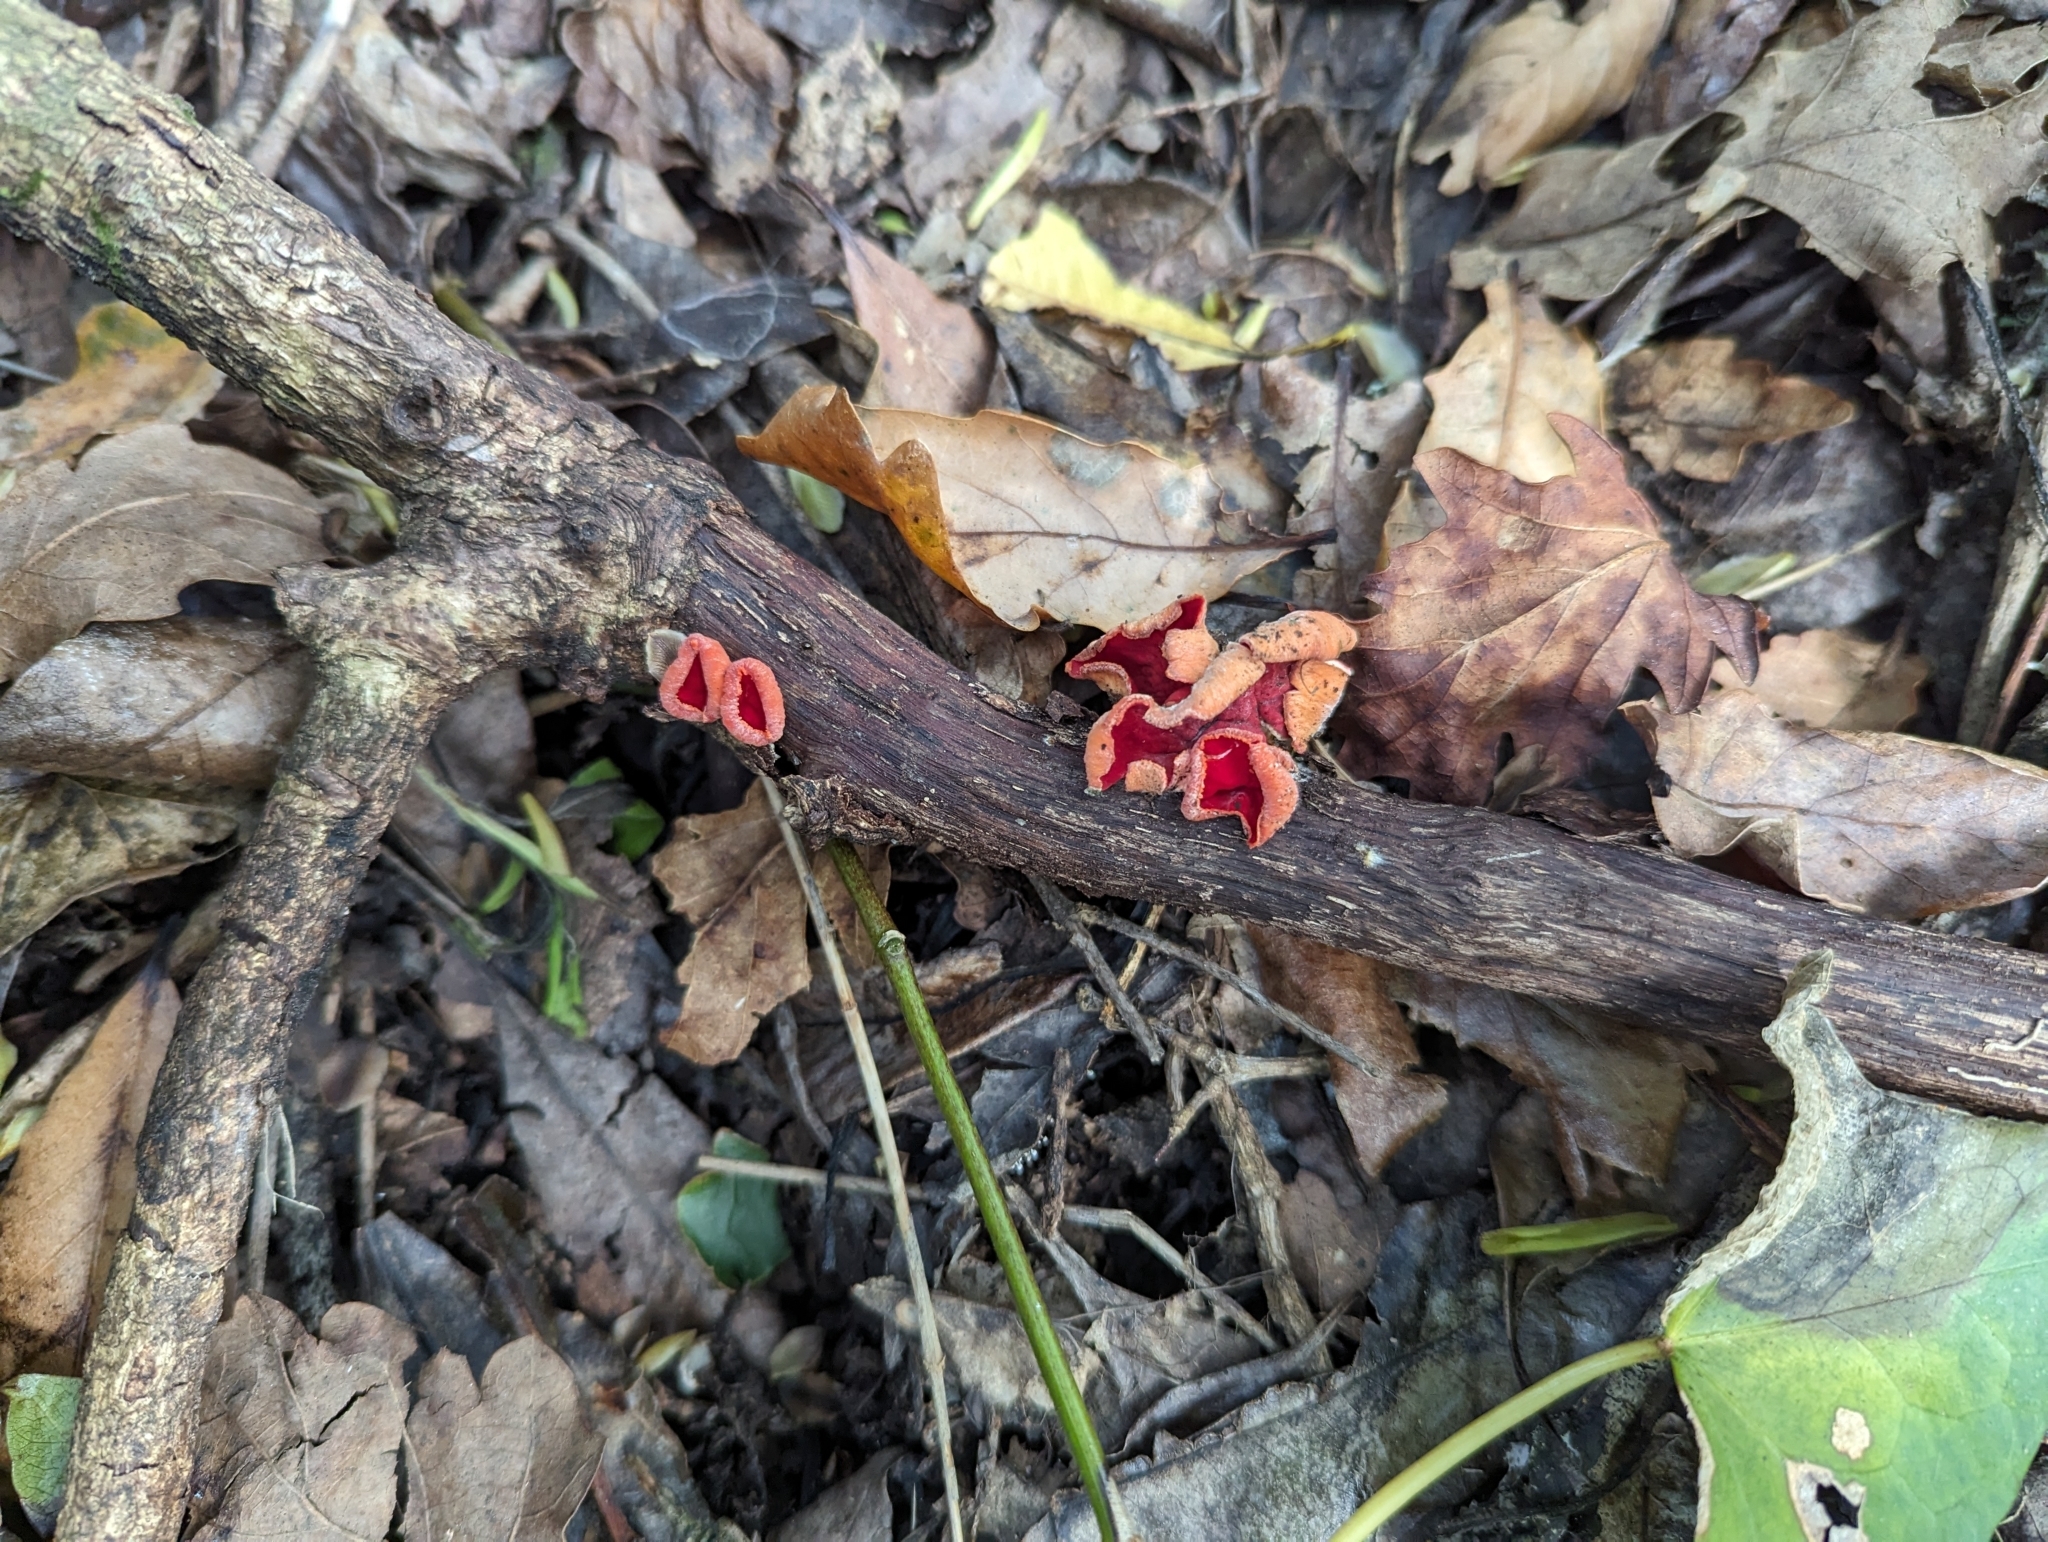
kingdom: Fungi
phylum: Ascomycota
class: Pezizomycetes
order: Pezizales
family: Sarcoscyphaceae
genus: Sarcoscypha
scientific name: Sarcoscypha
